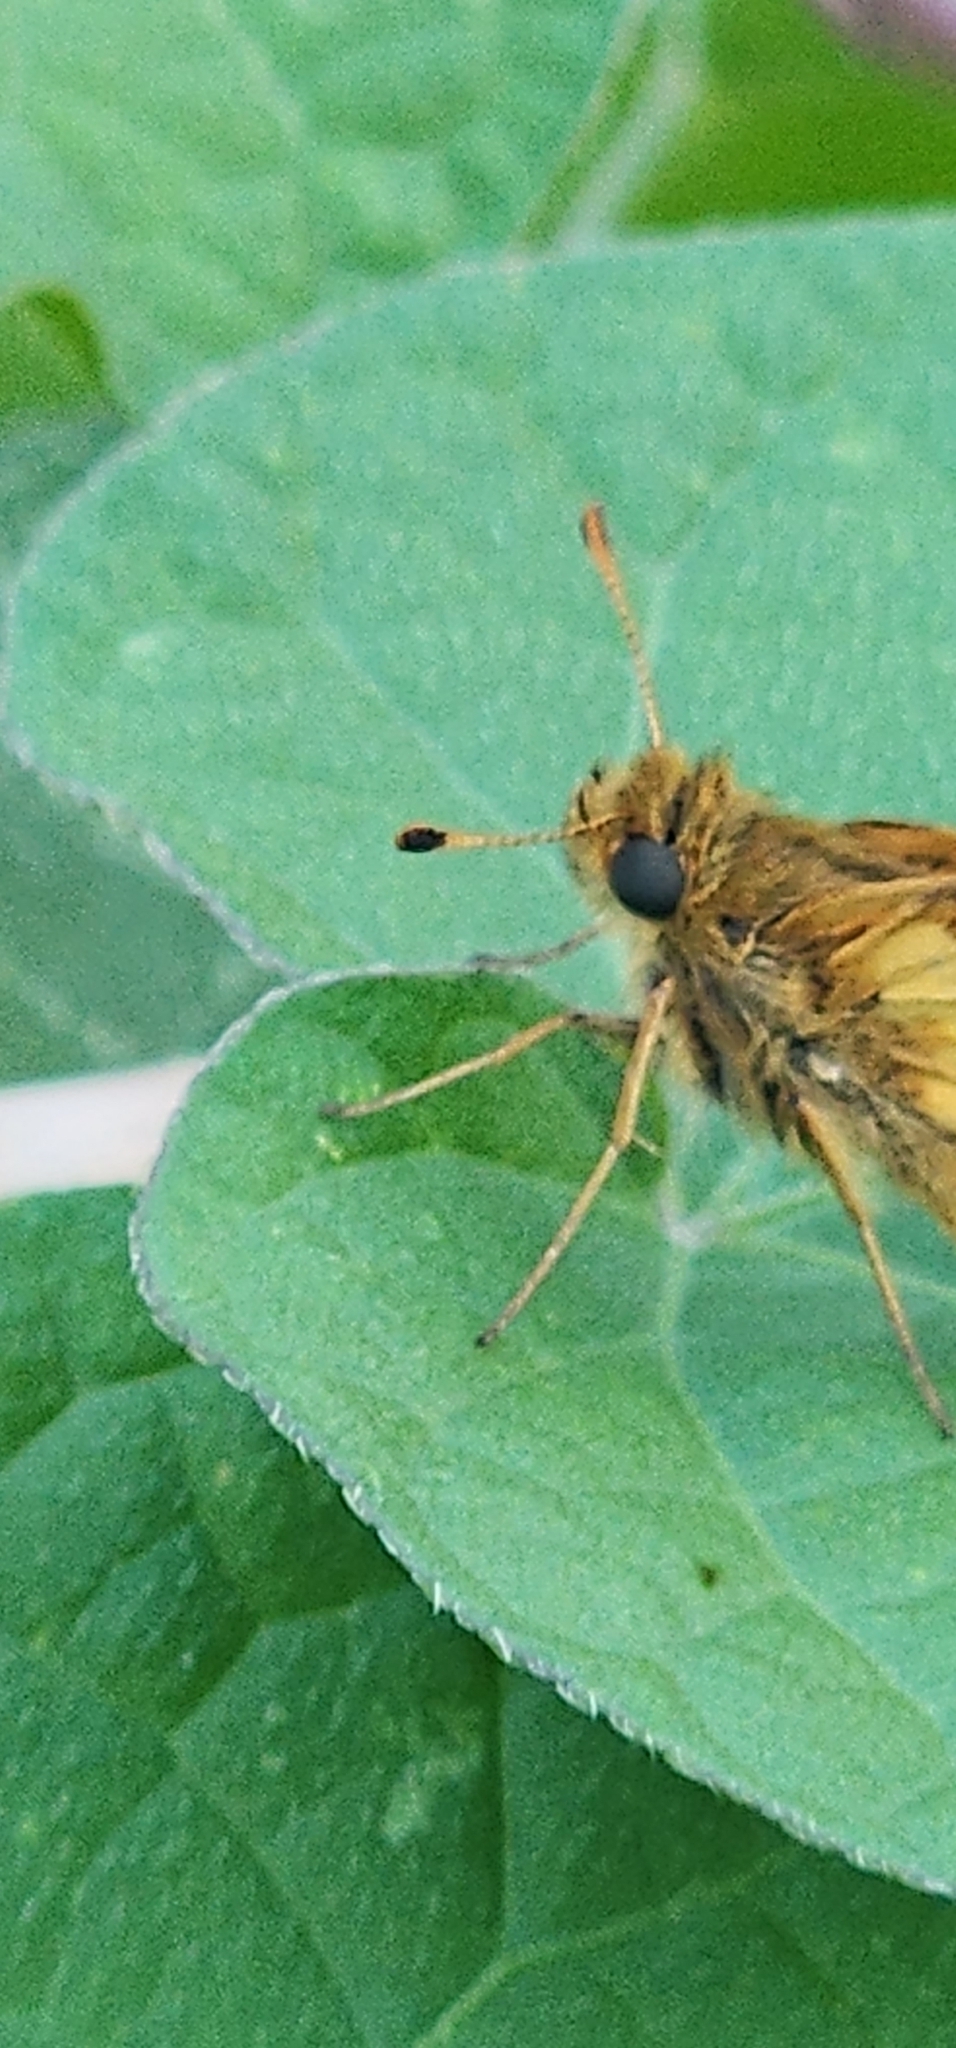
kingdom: Animalia
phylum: Arthropoda
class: Insecta
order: Lepidoptera
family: Hesperiidae
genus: Polites
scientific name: Polites coras
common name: Peck's skipper
